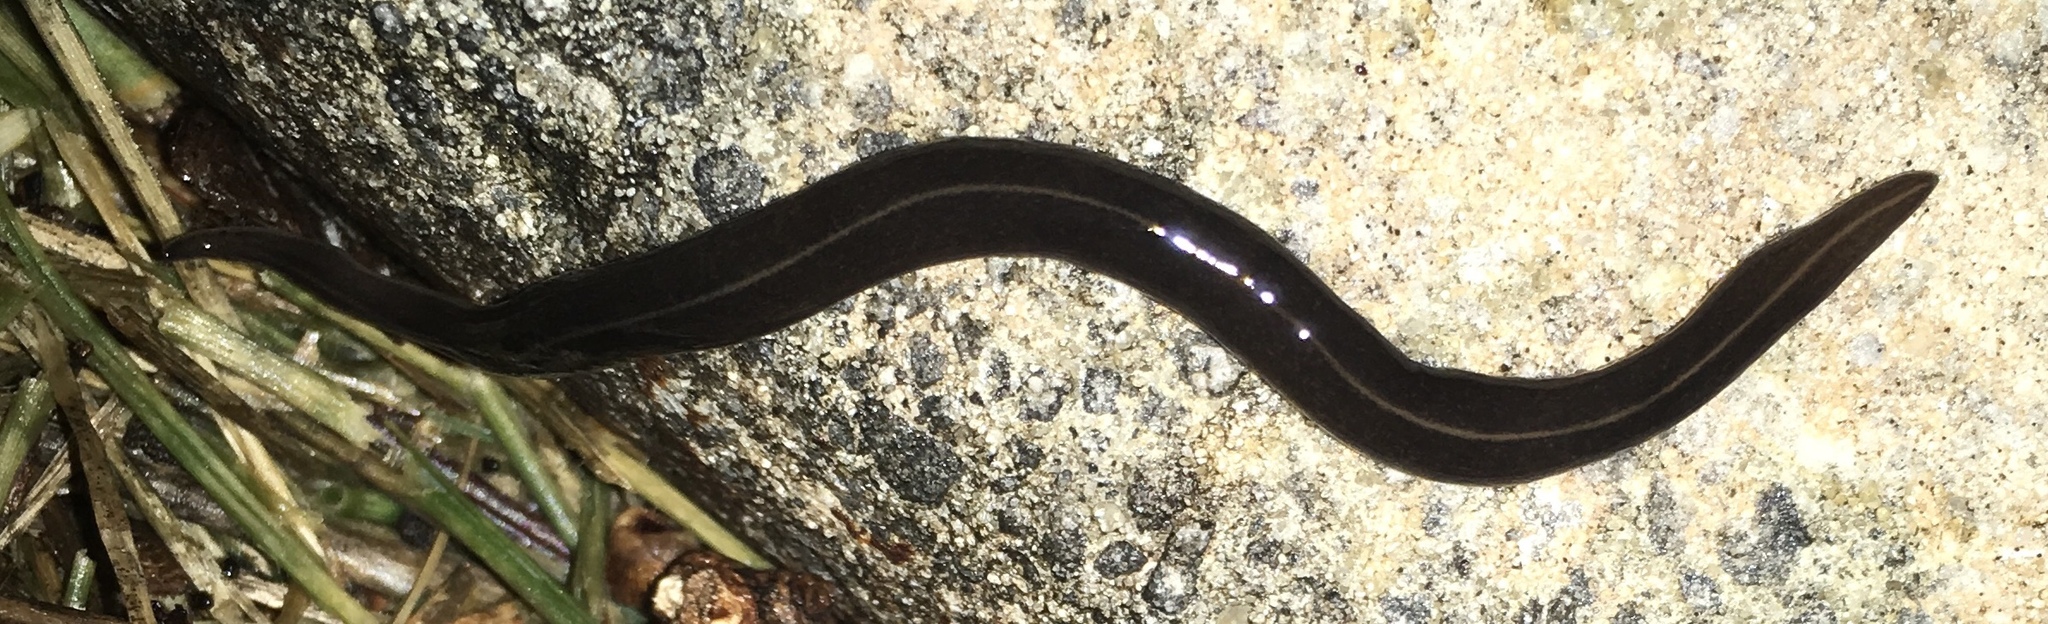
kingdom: Animalia
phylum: Platyhelminthes
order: Tricladida
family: Geoplanidae
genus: Platydemus
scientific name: Platydemus manokwari
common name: New guinea flatworm
